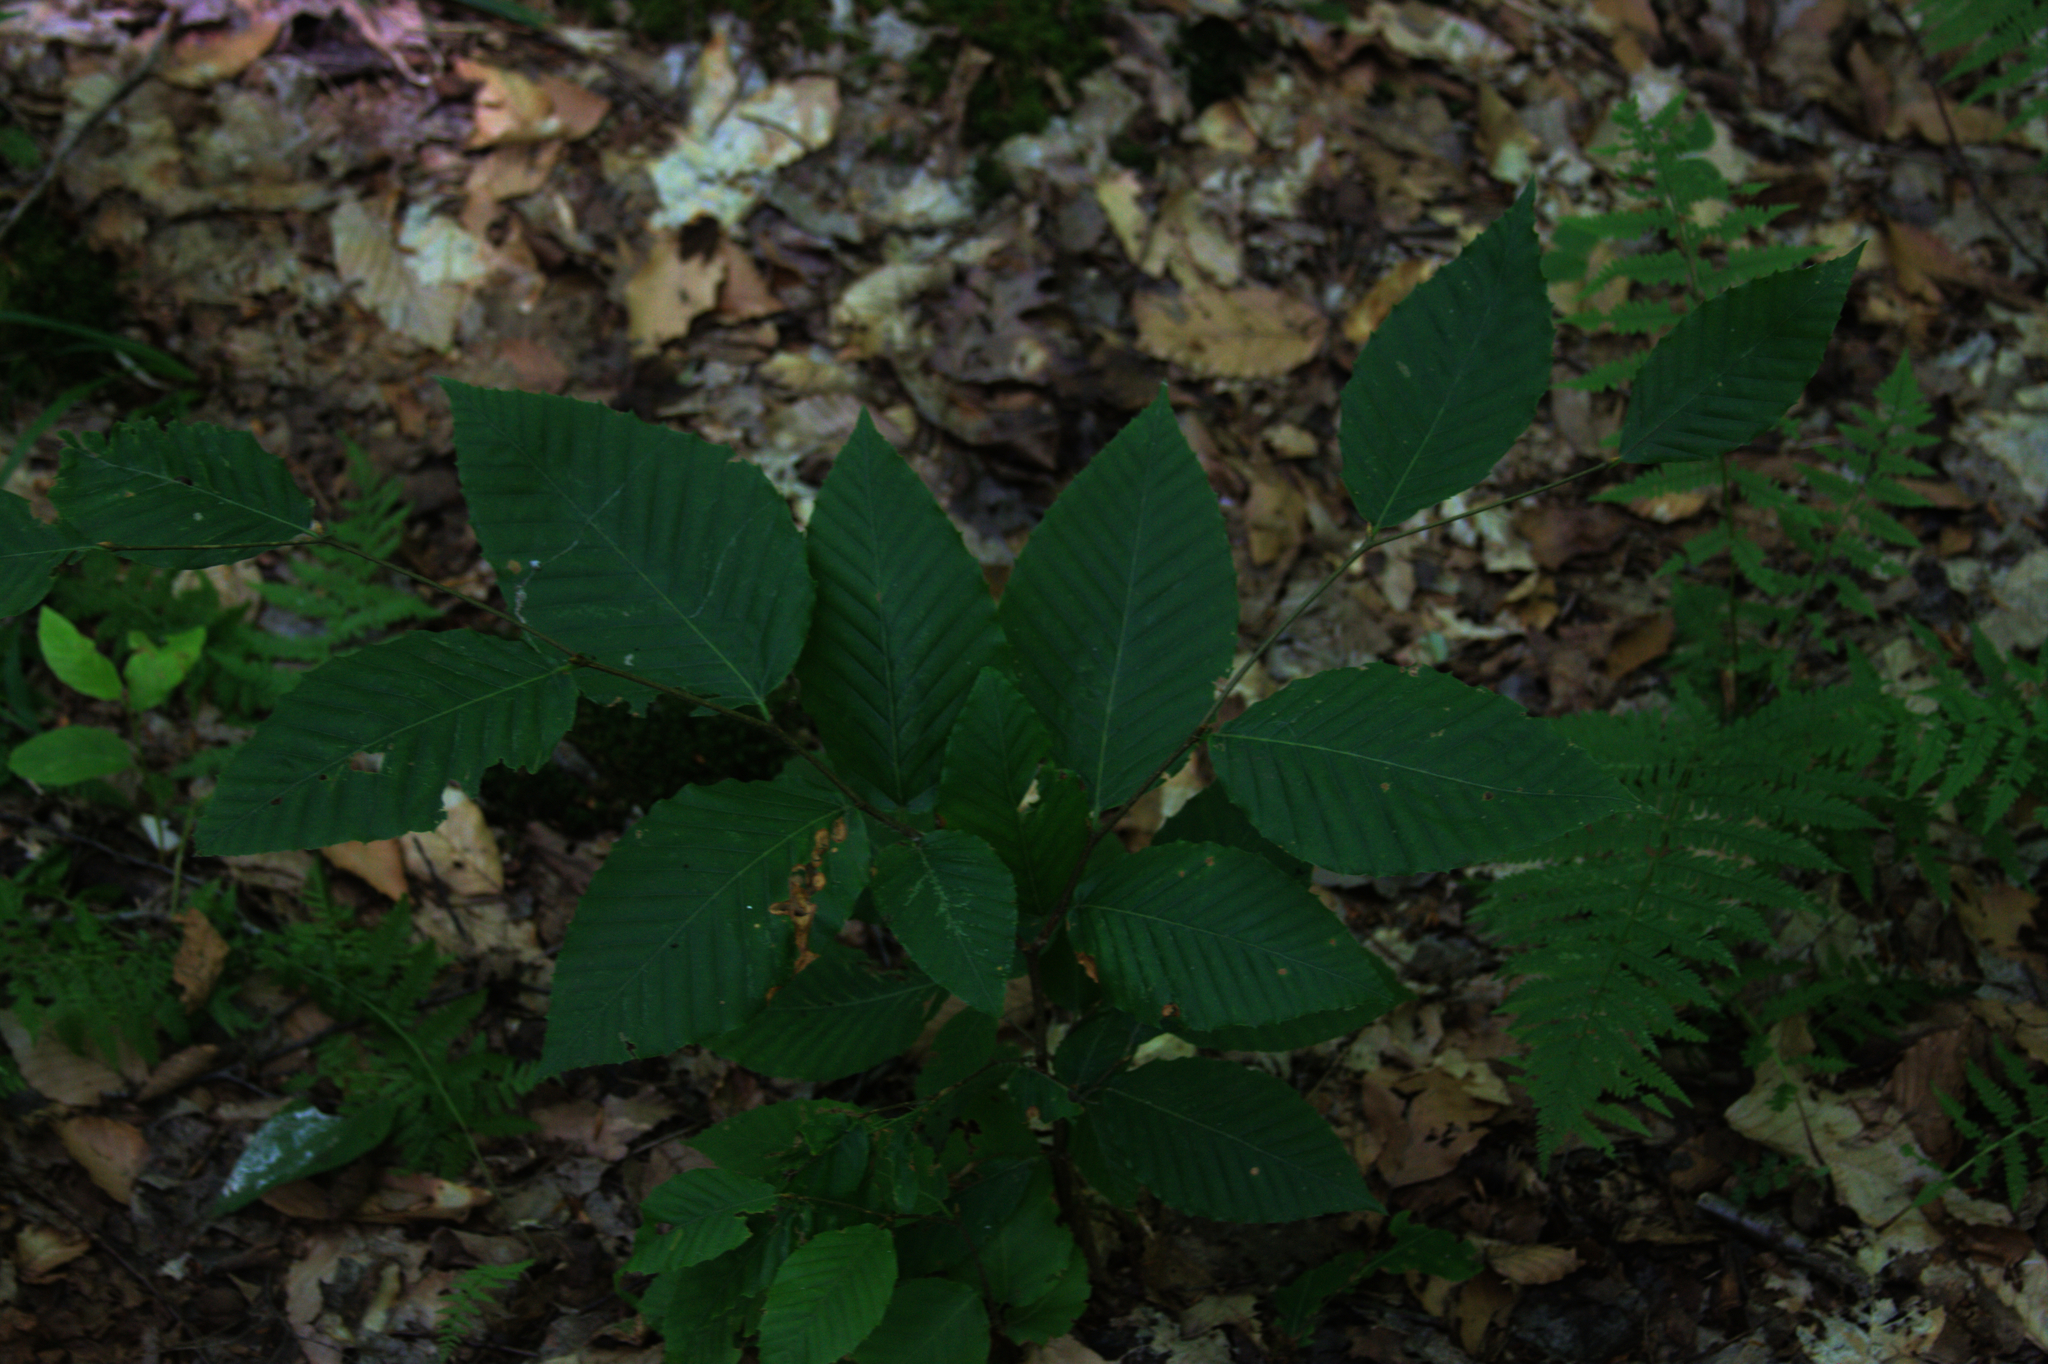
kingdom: Plantae
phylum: Tracheophyta
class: Magnoliopsida
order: Fagales
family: Fagaceae
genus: Fagus
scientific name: Fagus grandifolia
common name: American beech
